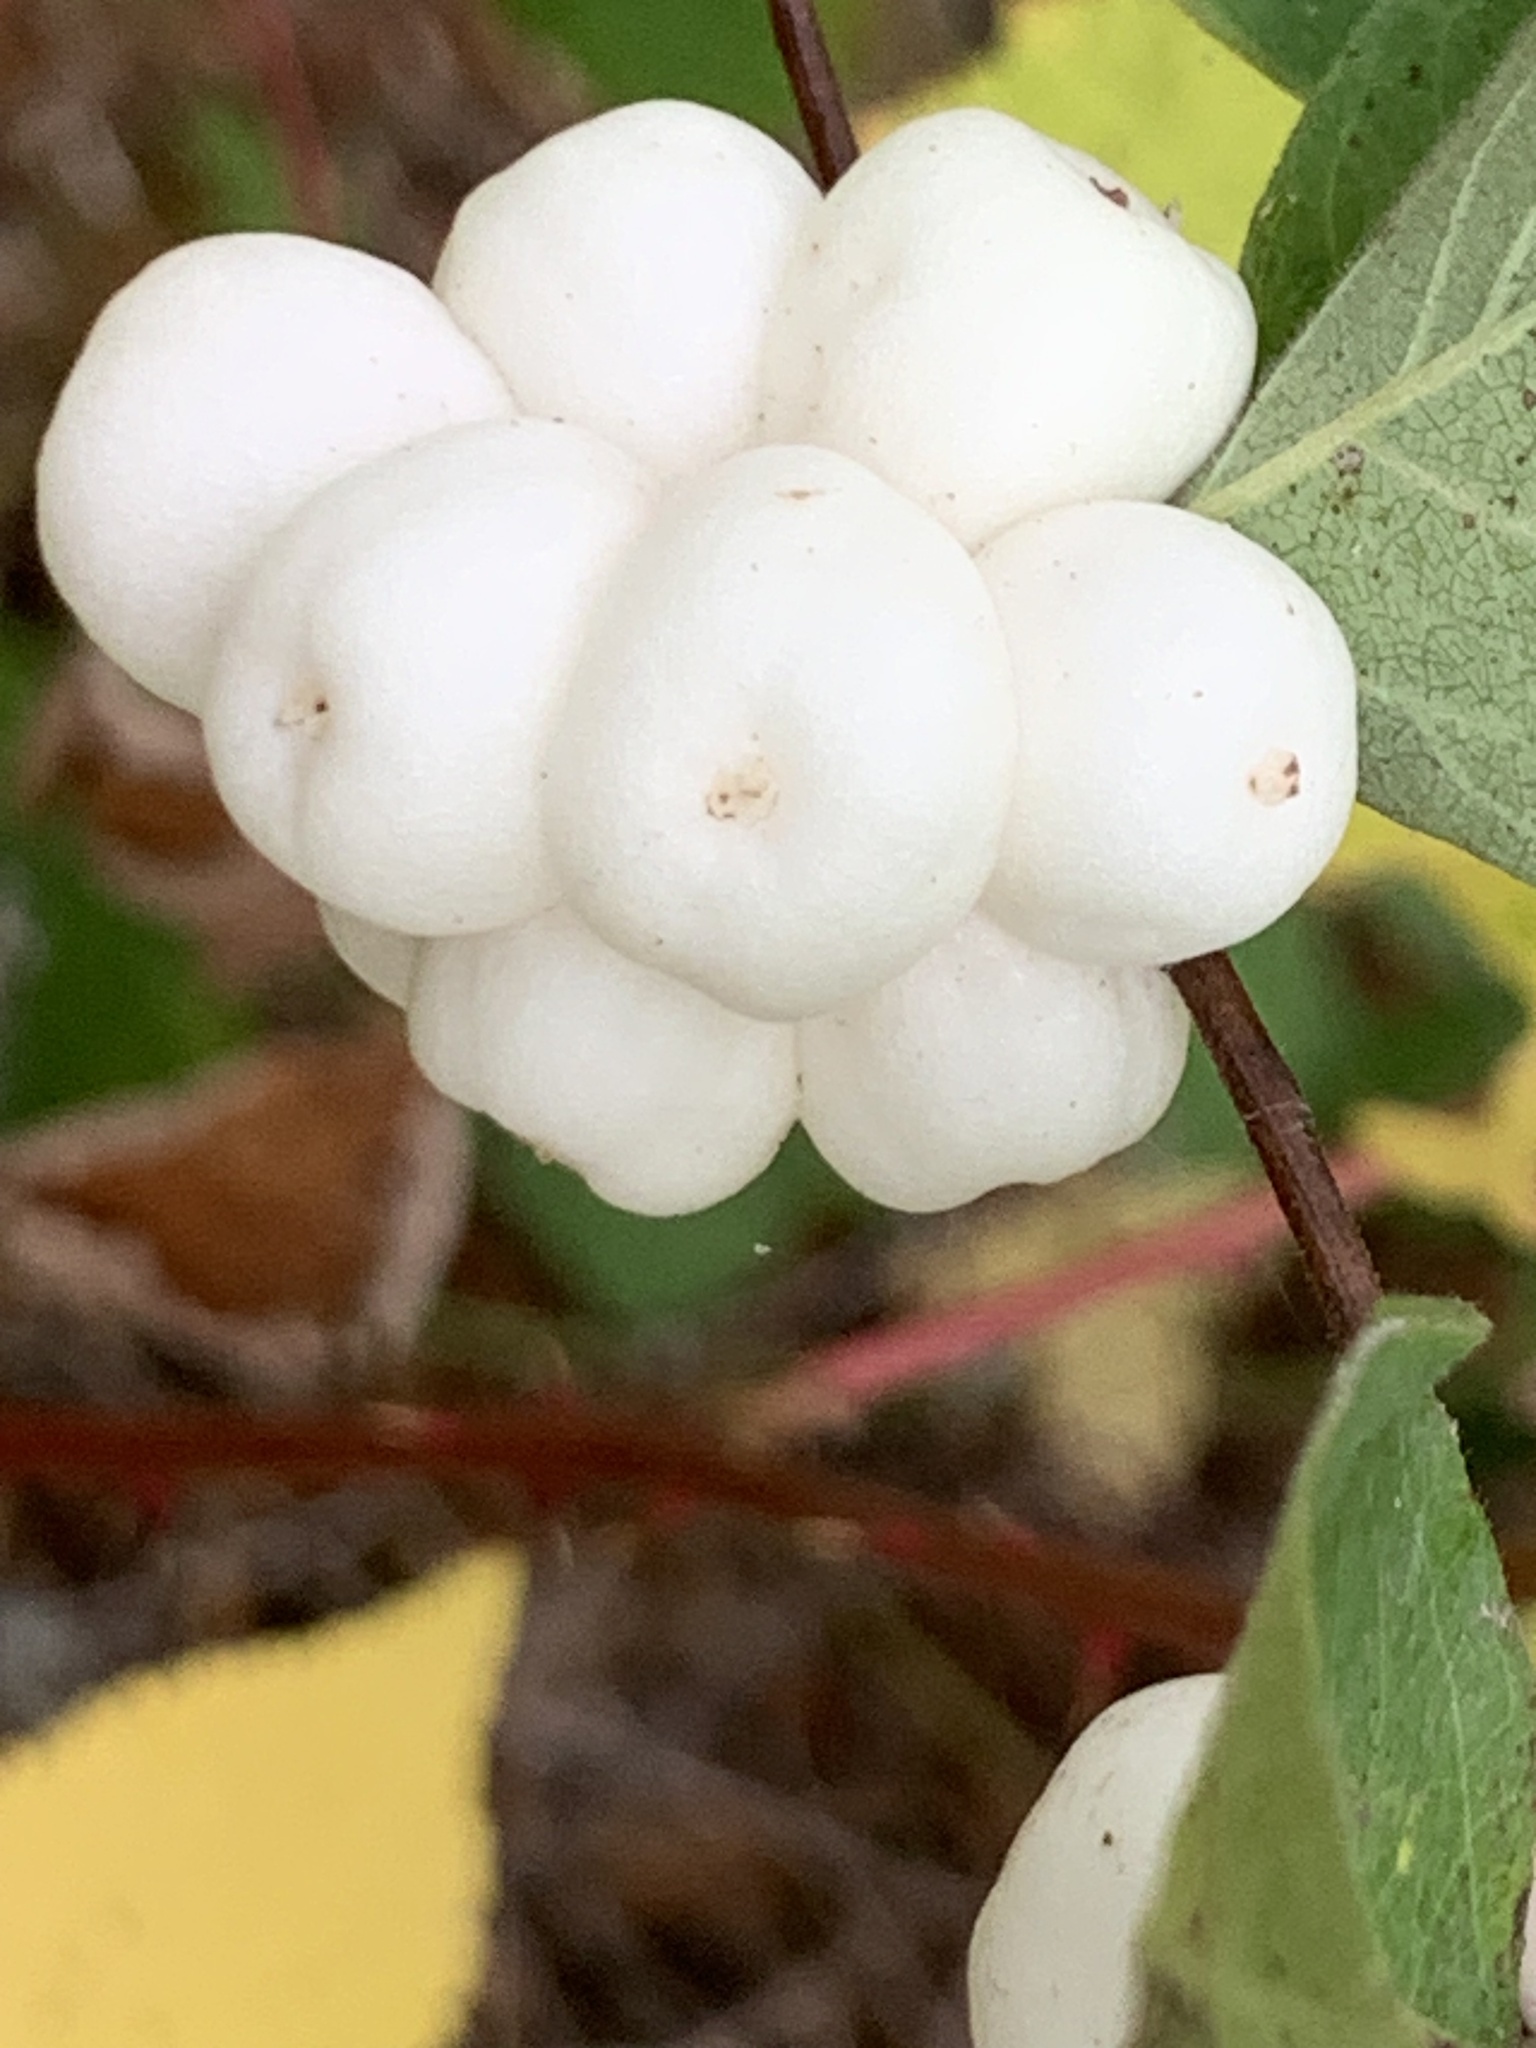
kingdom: Plantae
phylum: Tracheophyta
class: Magnoliopsida
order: Dipsacales
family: Caprifoliaceae
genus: Symphoricarpos
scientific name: Symphoricarpos albus
